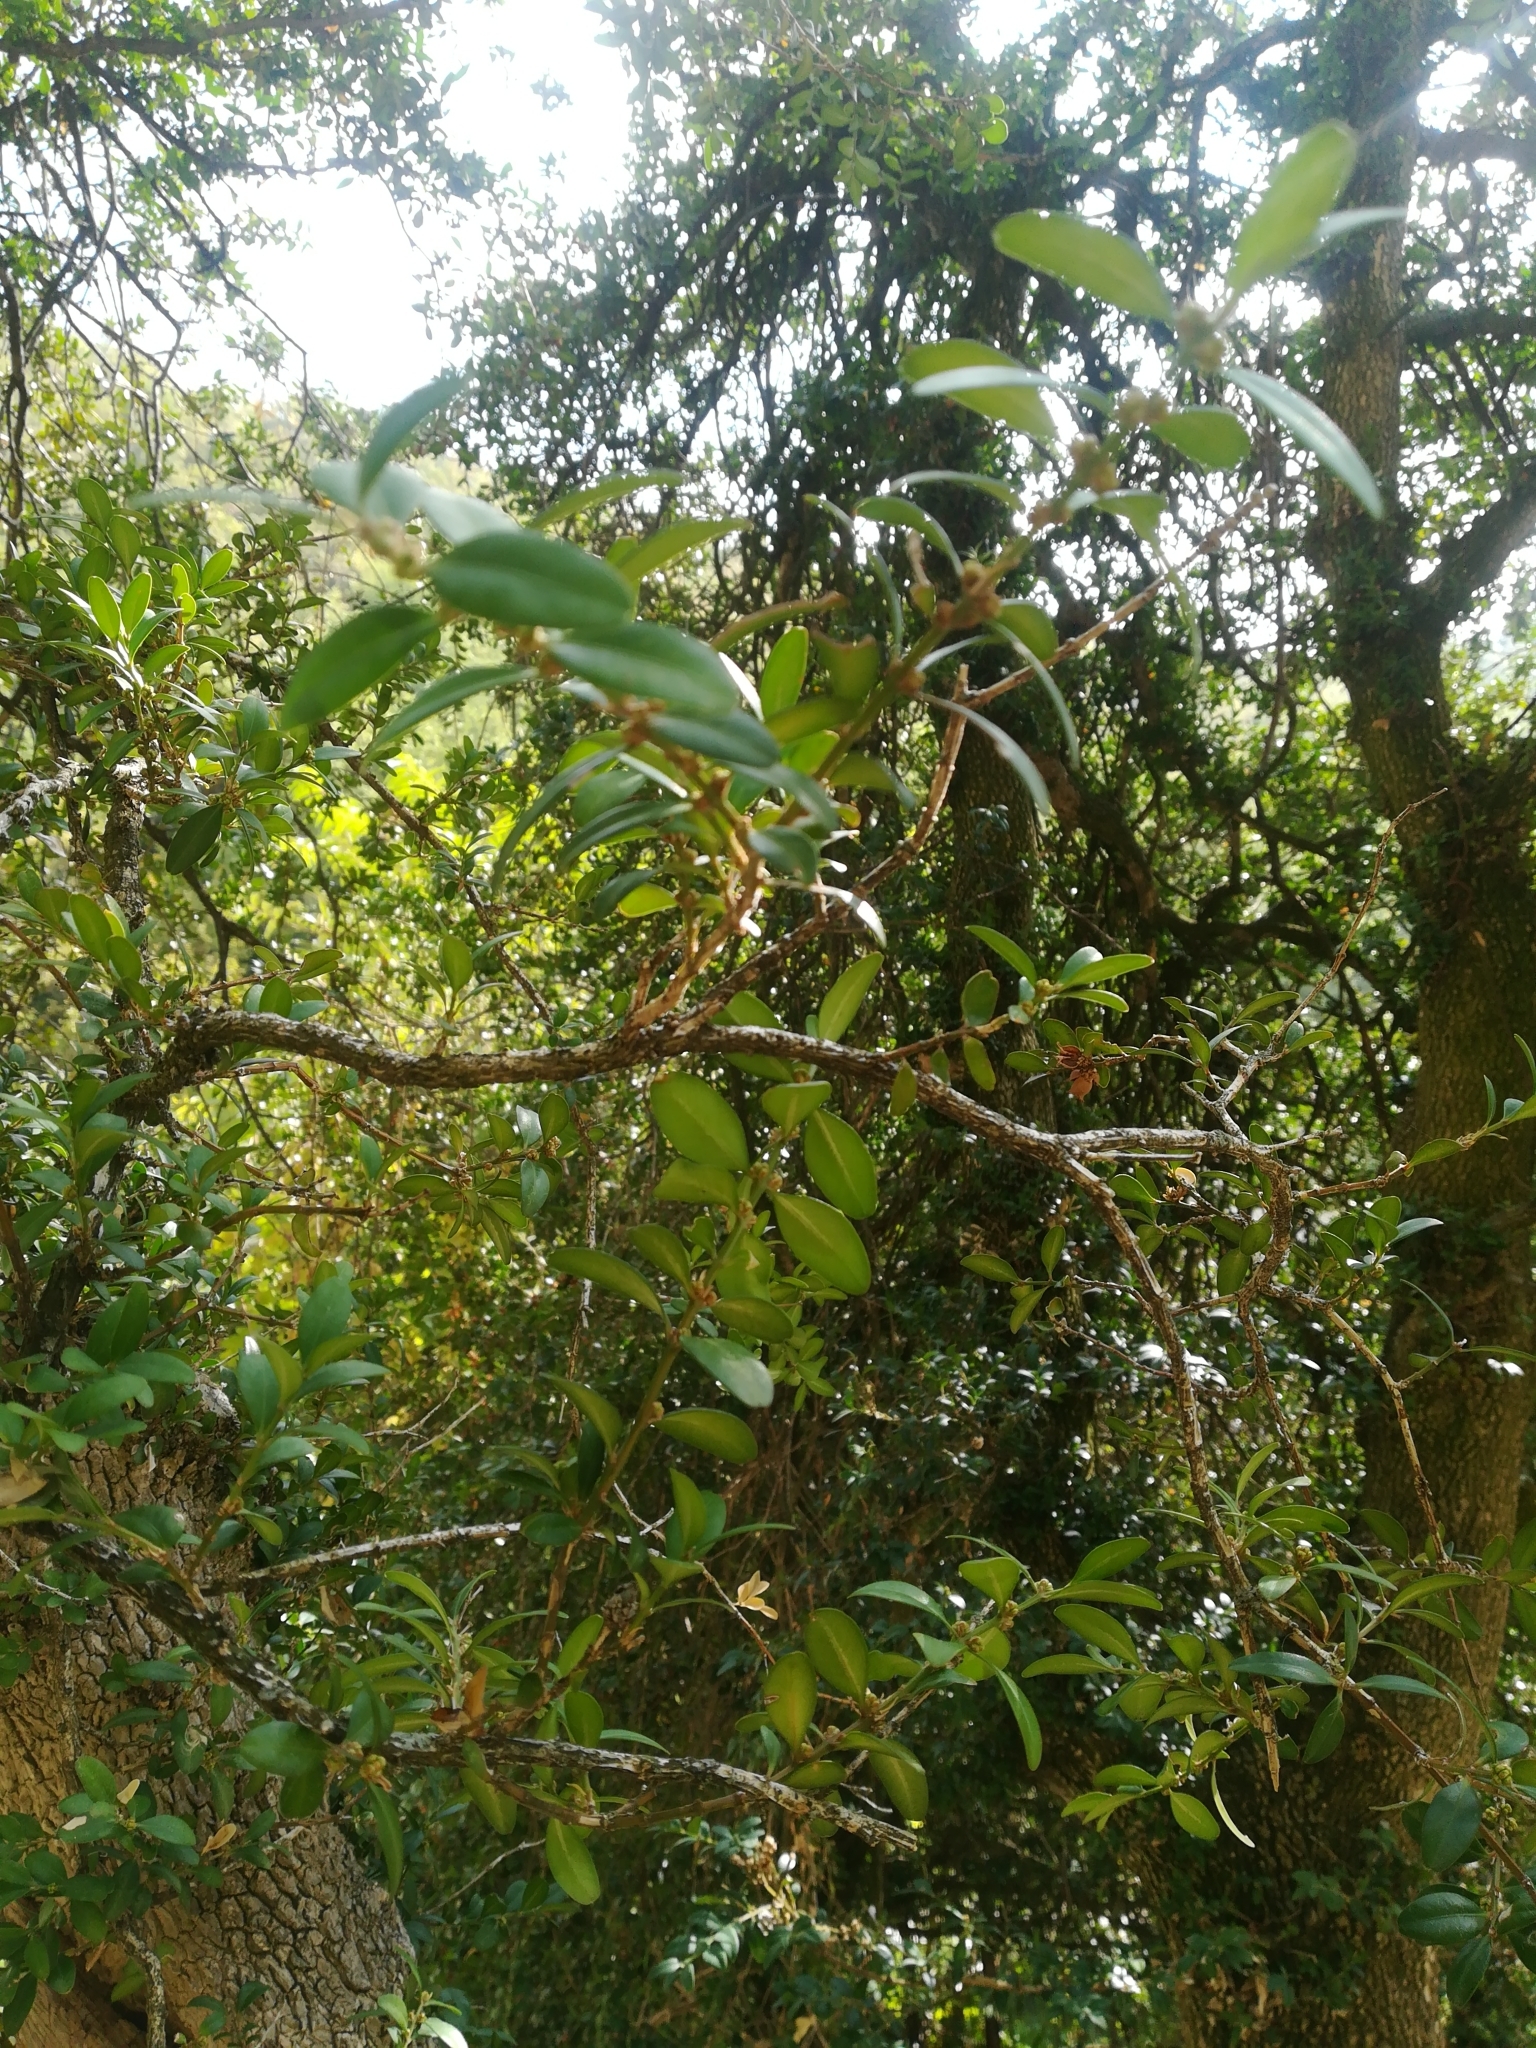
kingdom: Plantae
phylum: Tracheophyta
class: Magnoliopsida
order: Buxales
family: Buxaceae
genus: Buxus
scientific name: Buxus sempervirens
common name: Box
